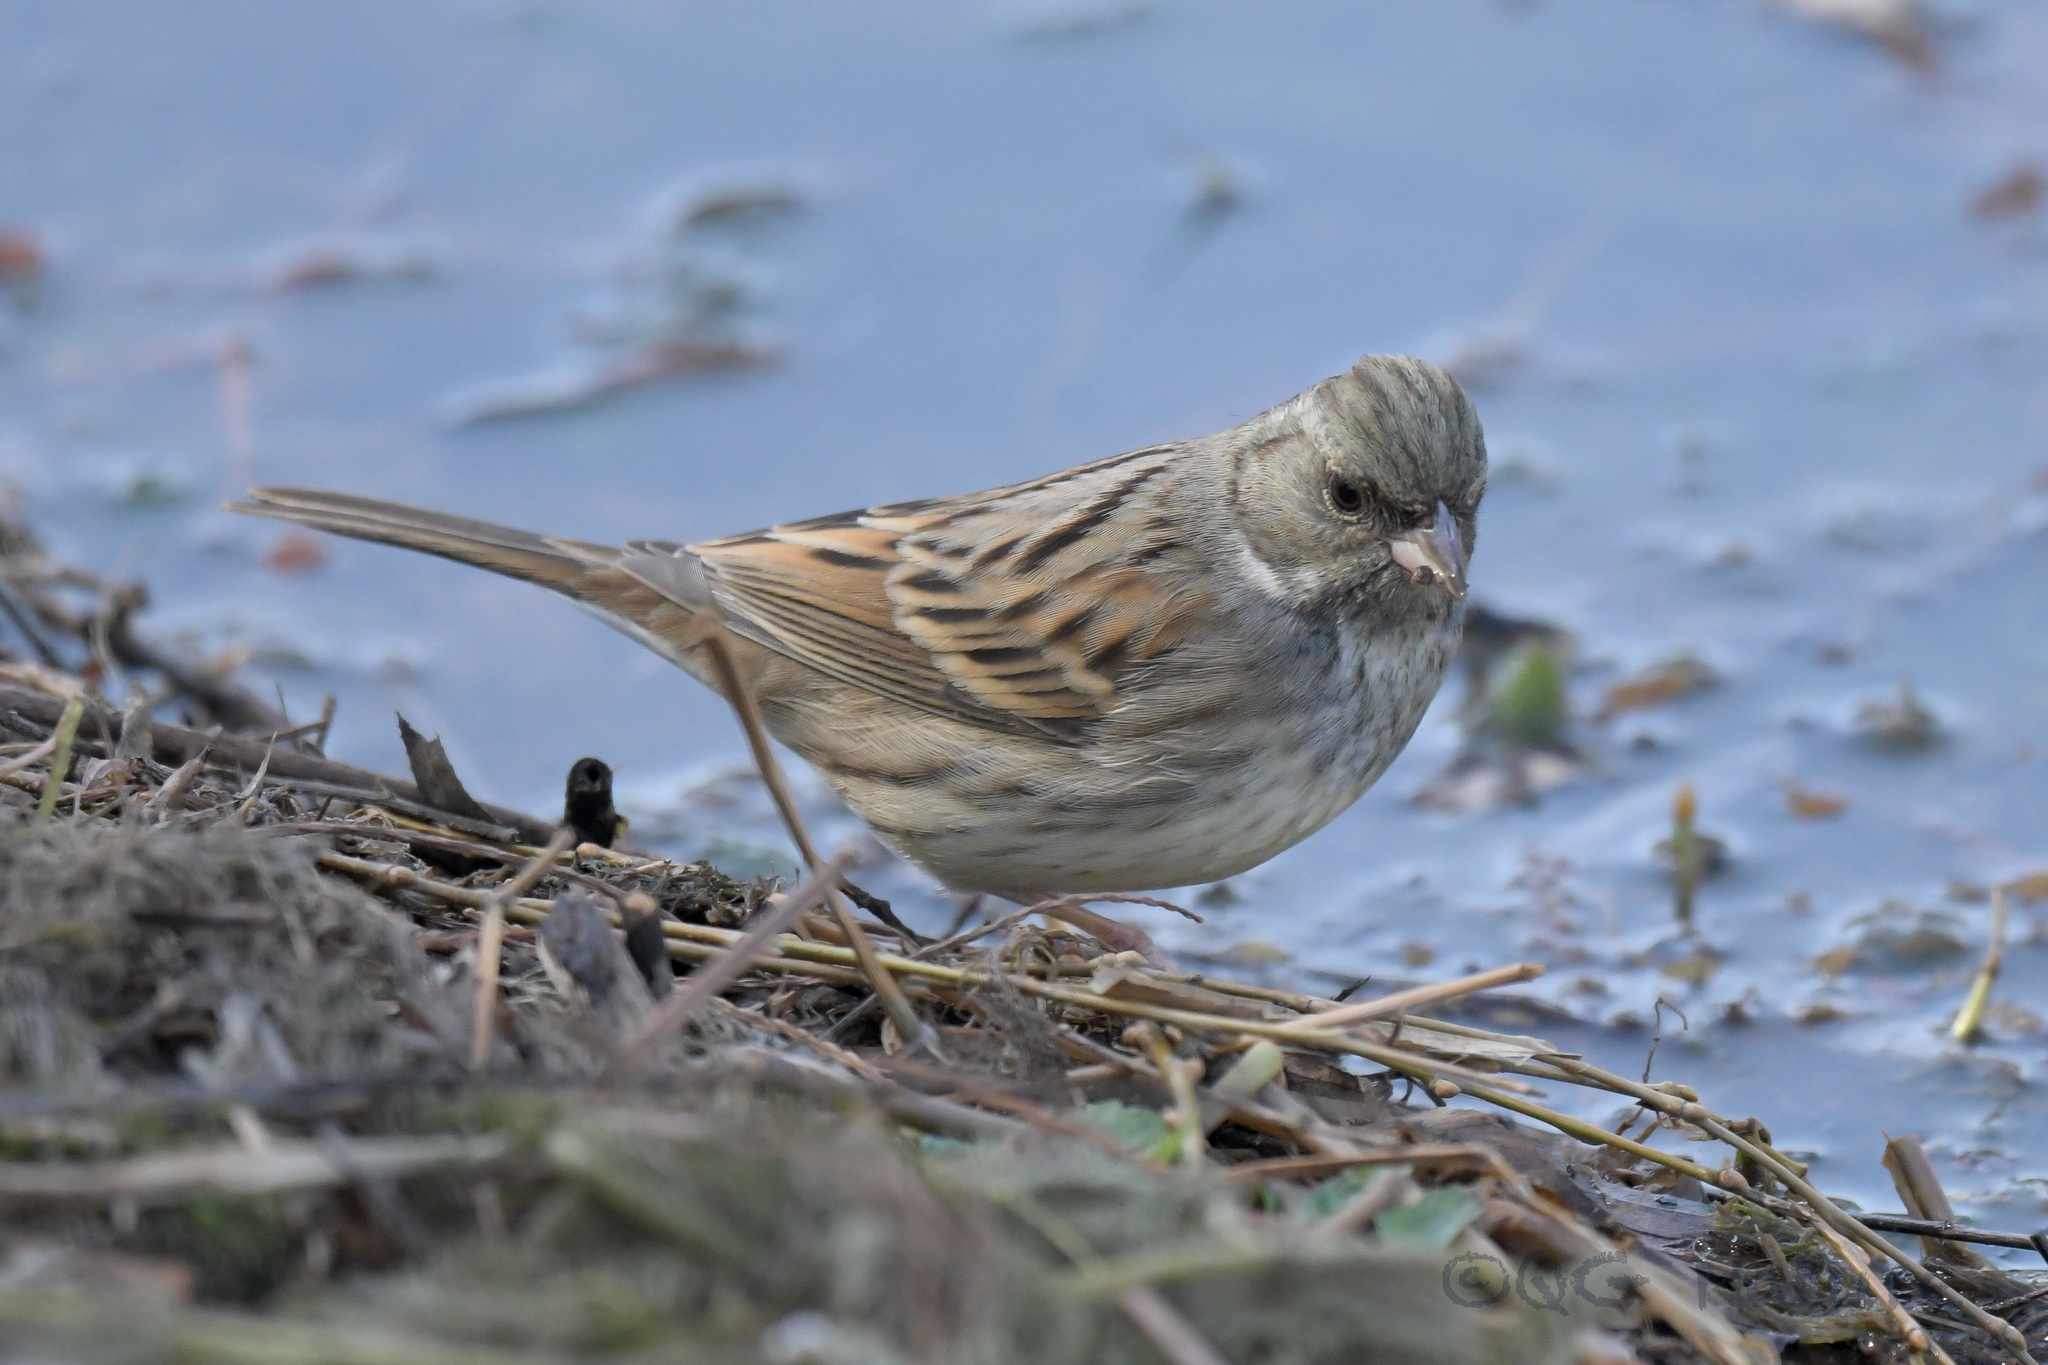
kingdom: Animalia
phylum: Chordata
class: Aves
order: Passeriformes
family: Emberizidae
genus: Emberiza
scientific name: Emberiza spodocephala
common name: Black-faced bunting
